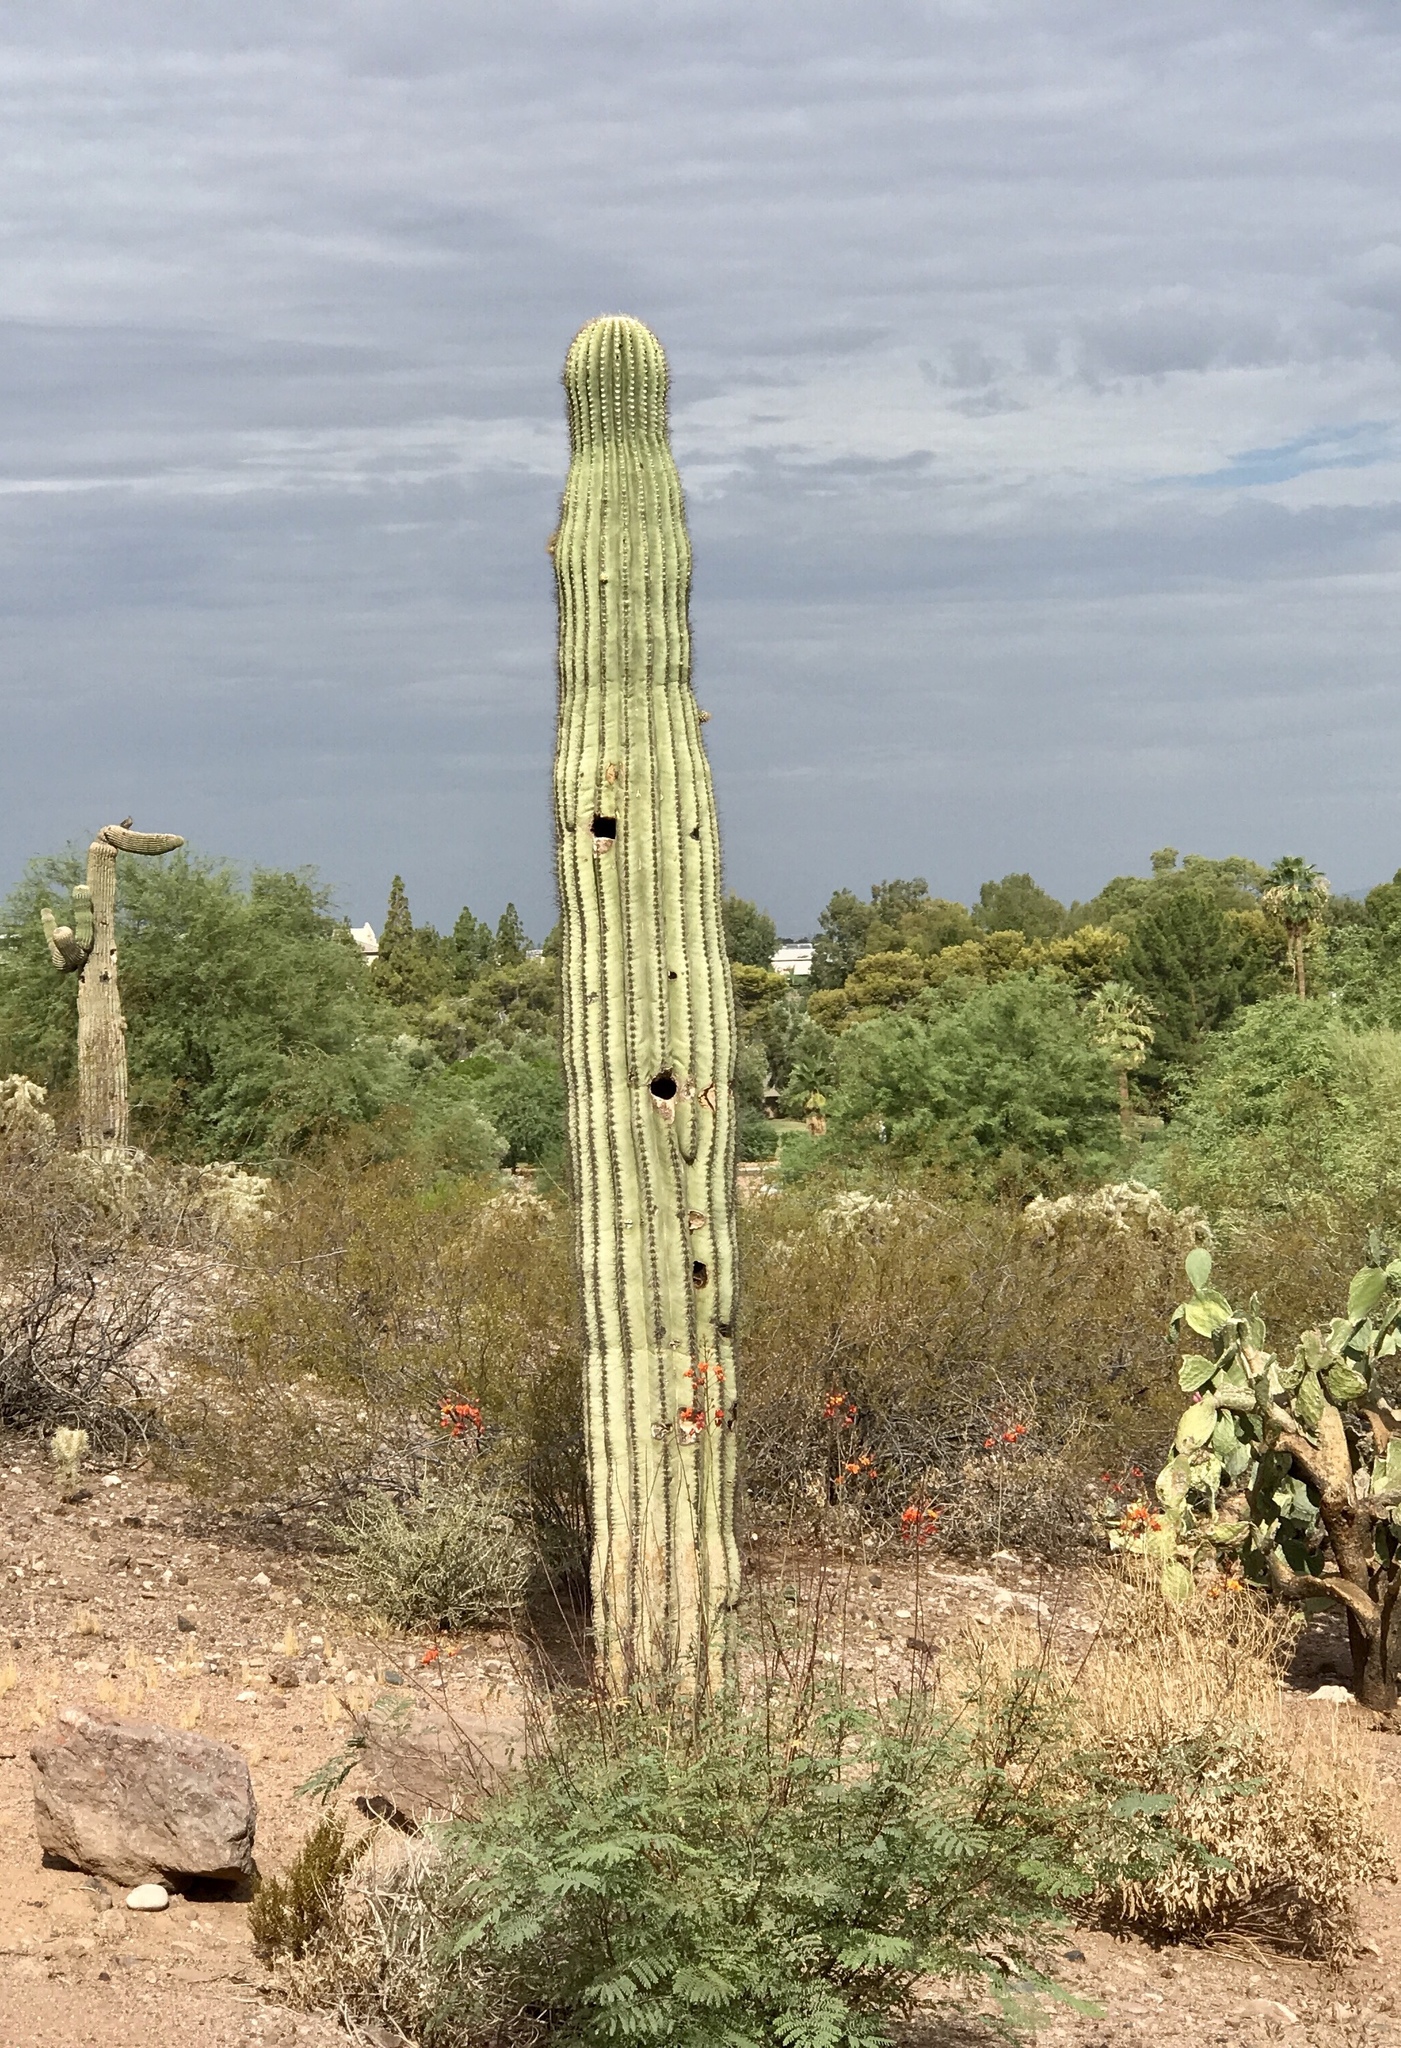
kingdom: Plantae
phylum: Tracheophyta
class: Magnoliopsida
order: Caryophyllales
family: Cactaceae
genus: Carnegiea
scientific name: Carnegiea gigantea
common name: Saguaro
